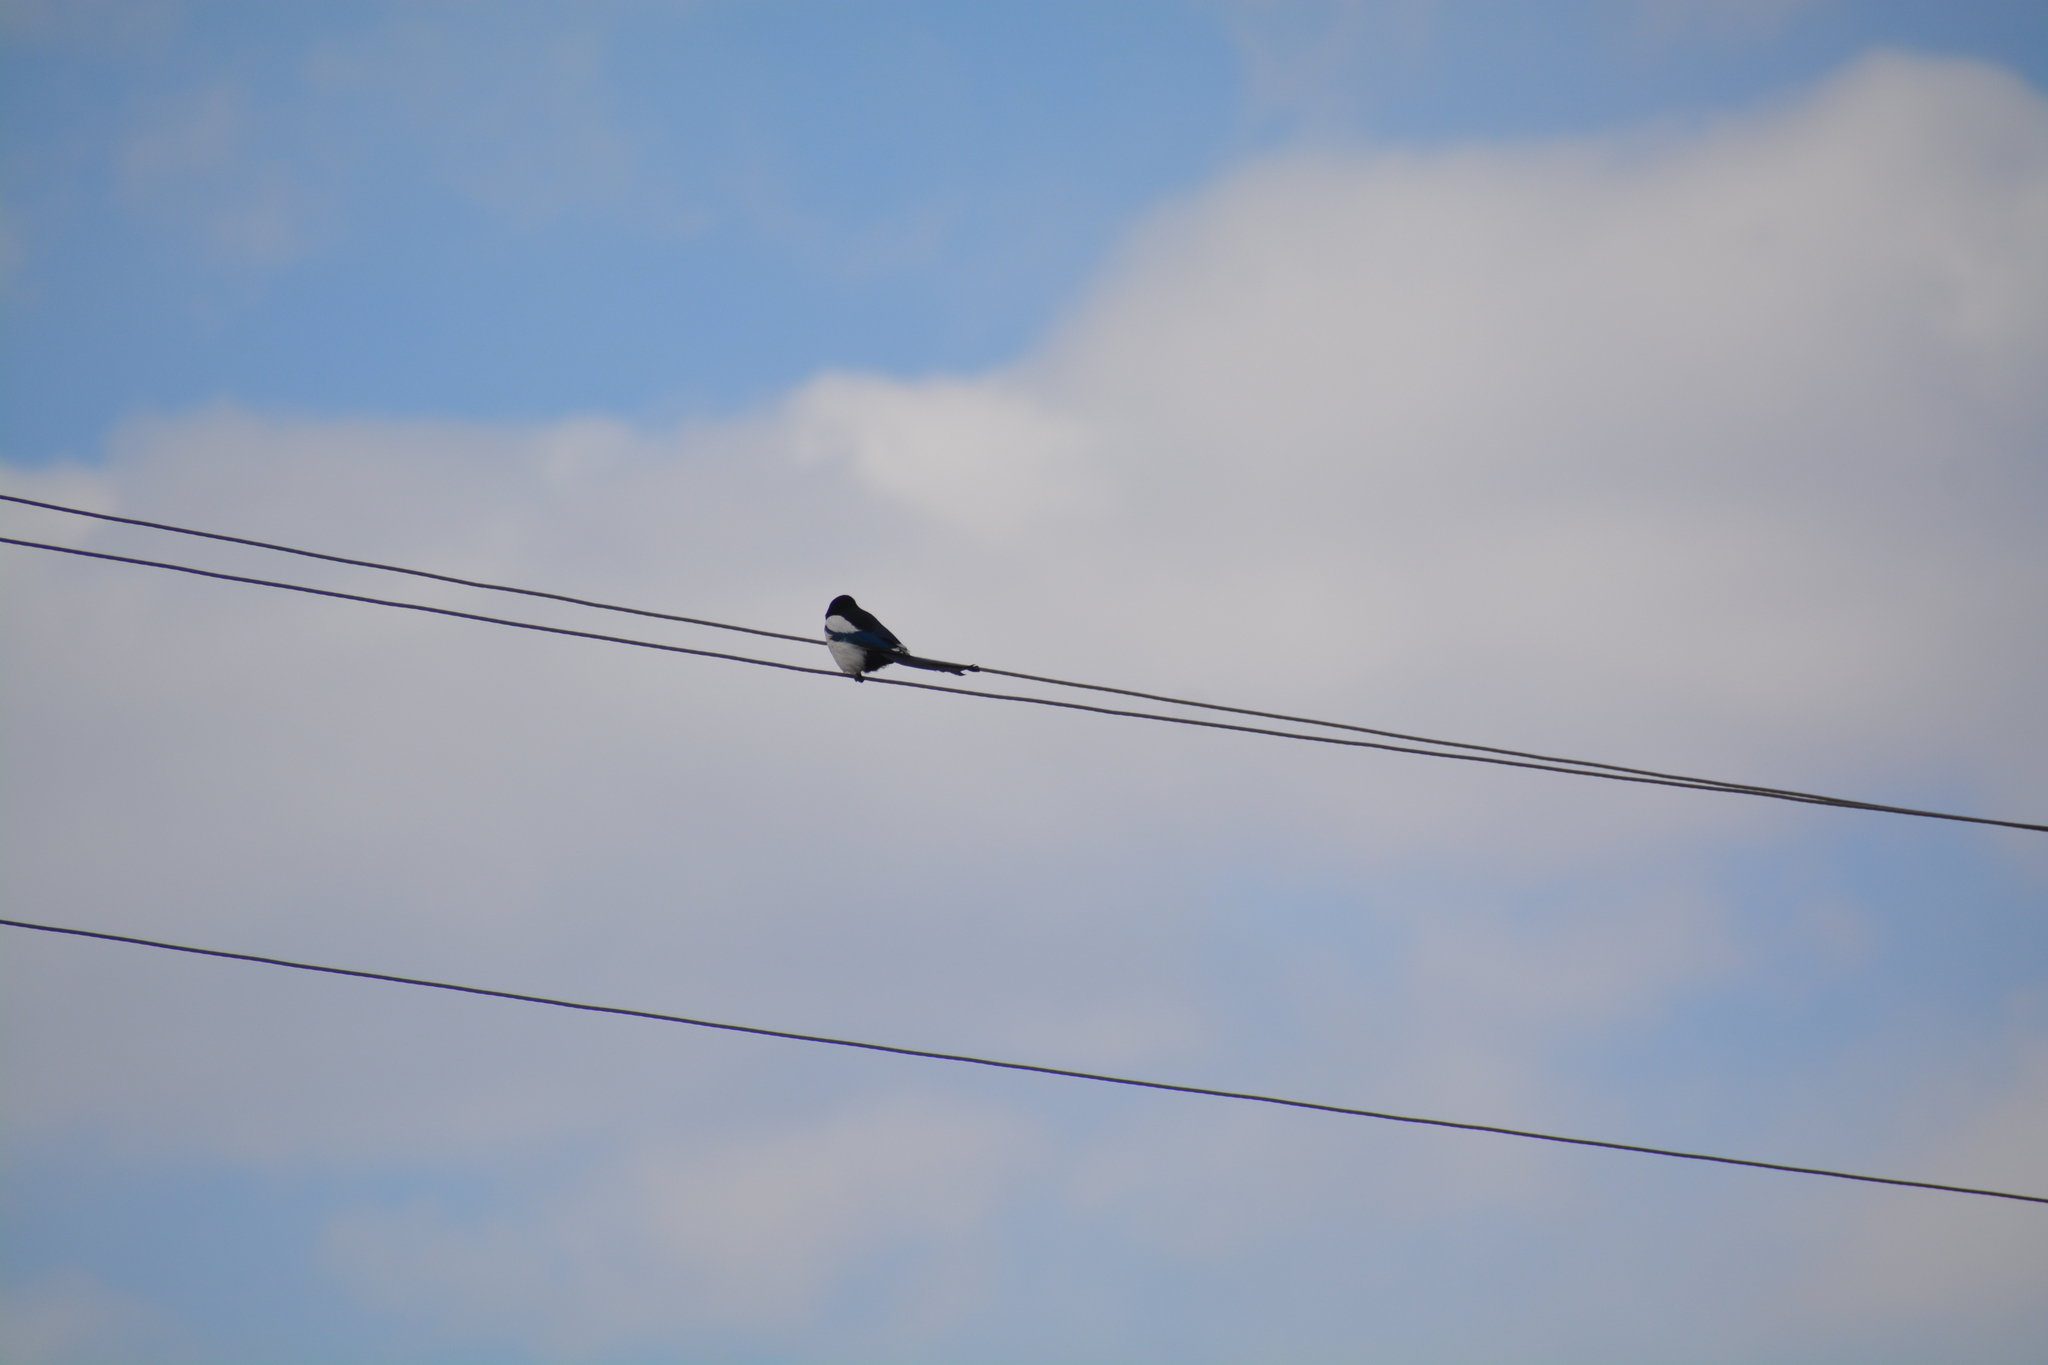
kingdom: Animalia
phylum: Chordata
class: Aves
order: Passeriformes
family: Corvidae
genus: Pica
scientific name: Pica pica
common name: Eurasian magpie
